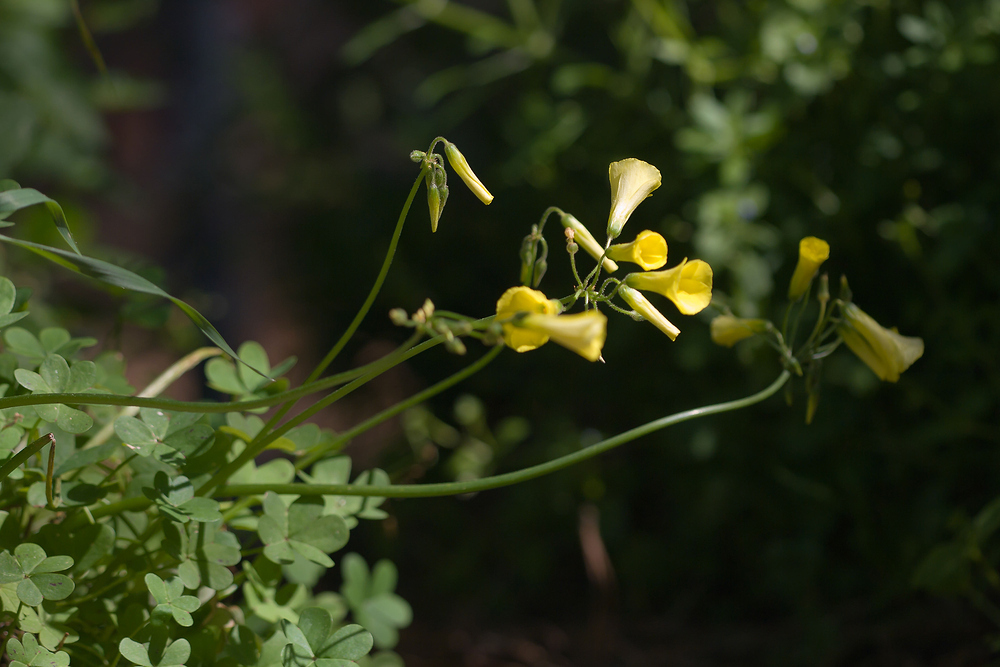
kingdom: Plantae
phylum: Tracheophyta
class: Magnoliopsida
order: Oxalidales
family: Oxalidaceae
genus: Oxalis
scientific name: Oxalis pes-caprae
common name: Bermuda-buttercup
